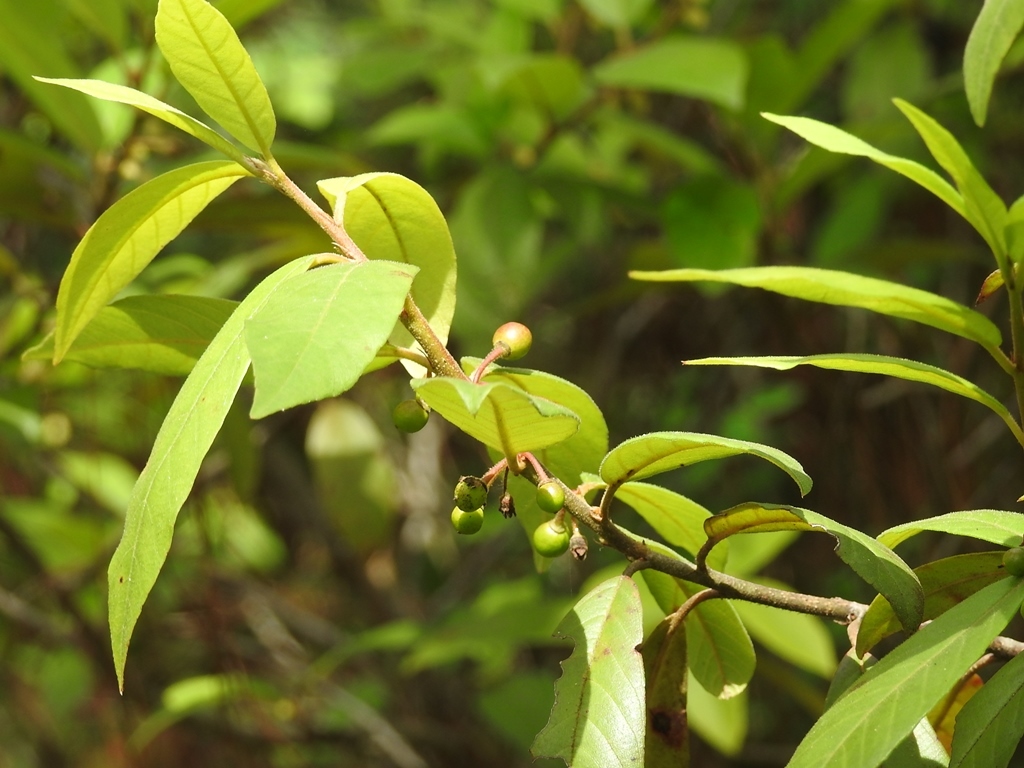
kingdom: Plantae
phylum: Tracheophyta
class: Magnoliopsida
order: Rosales
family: Rhamnaceae
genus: Frangula
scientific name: Frangula mucronata
